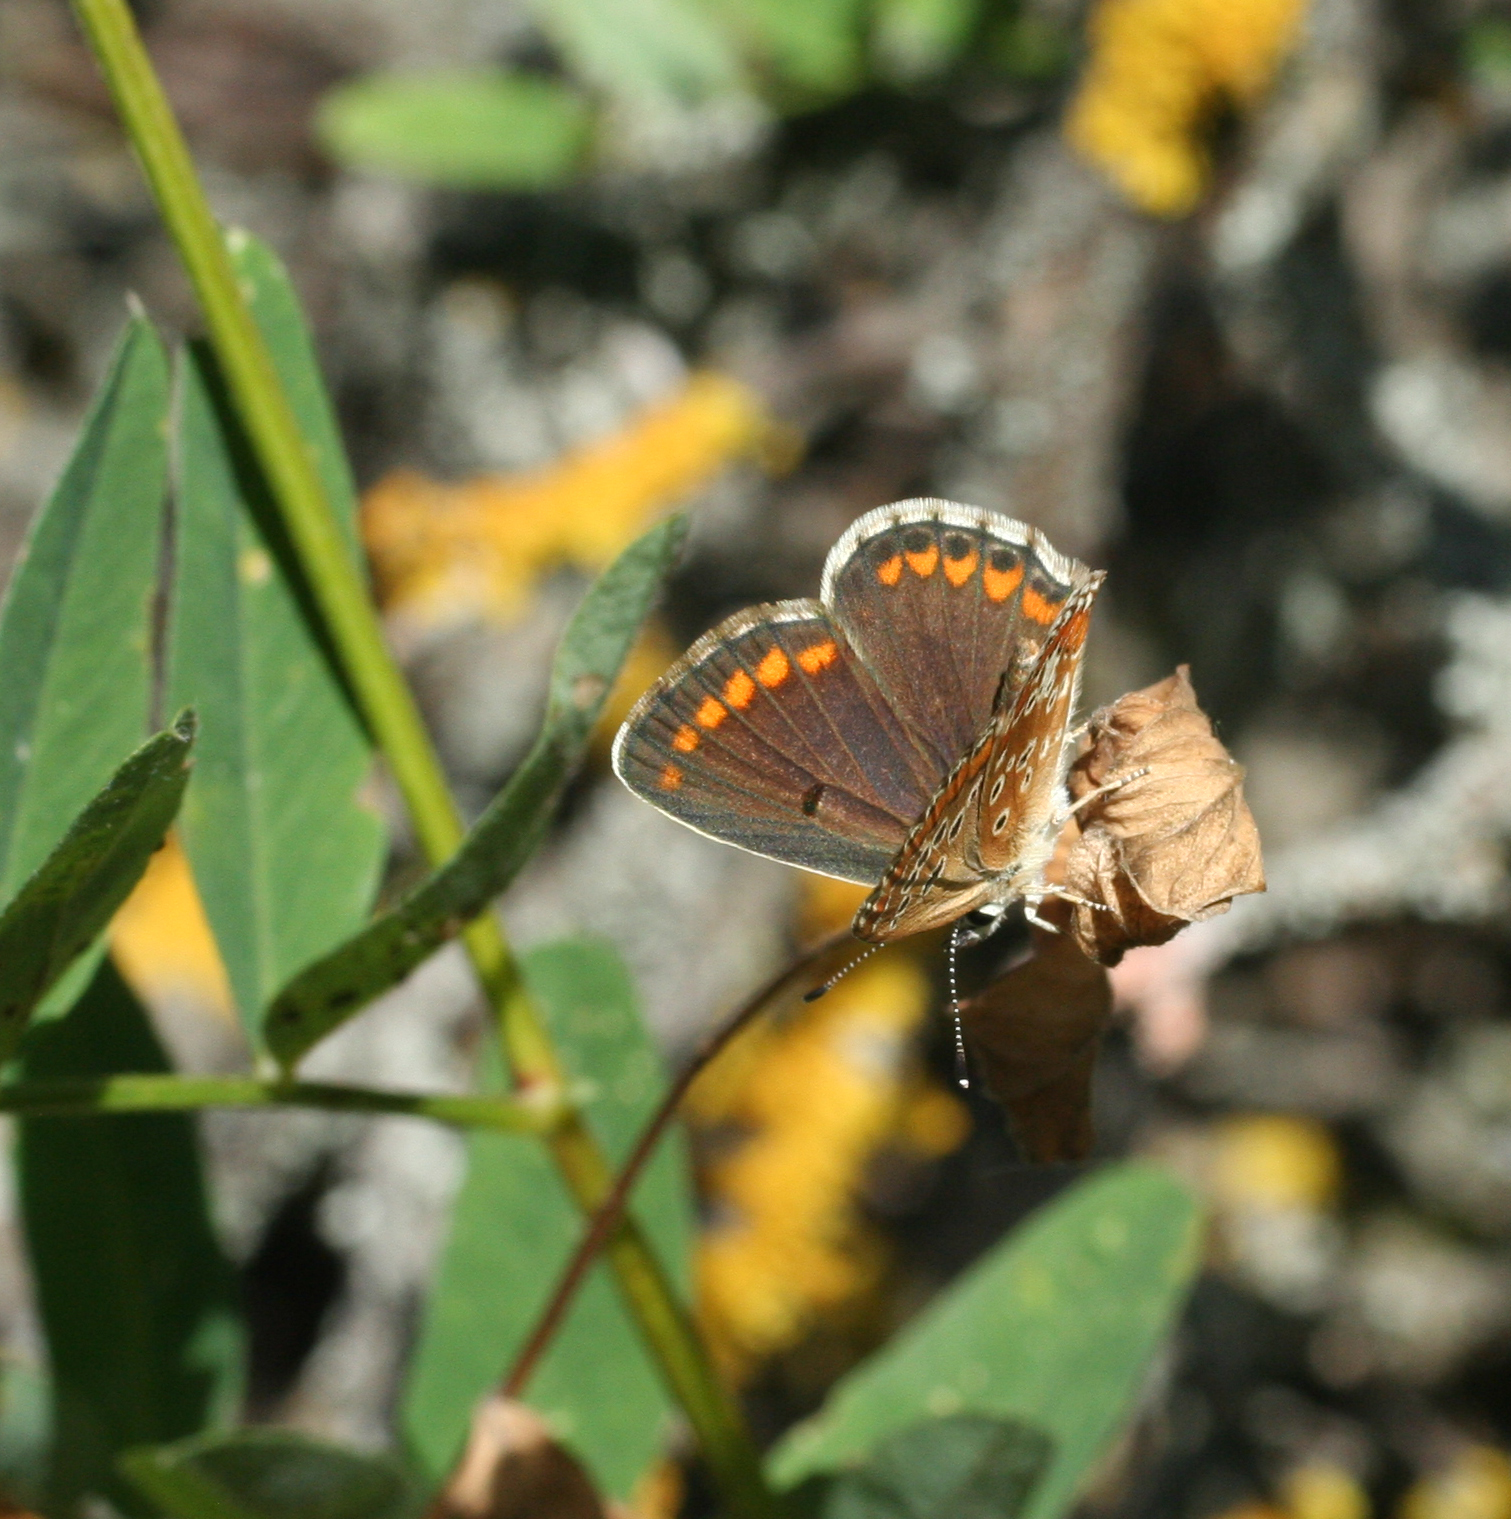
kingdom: Animalia
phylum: Arthropoda
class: Insecta
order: Lepidoptera
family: Lycaenidae
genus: Aricia
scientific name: Aricia agestis
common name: Brown argus
